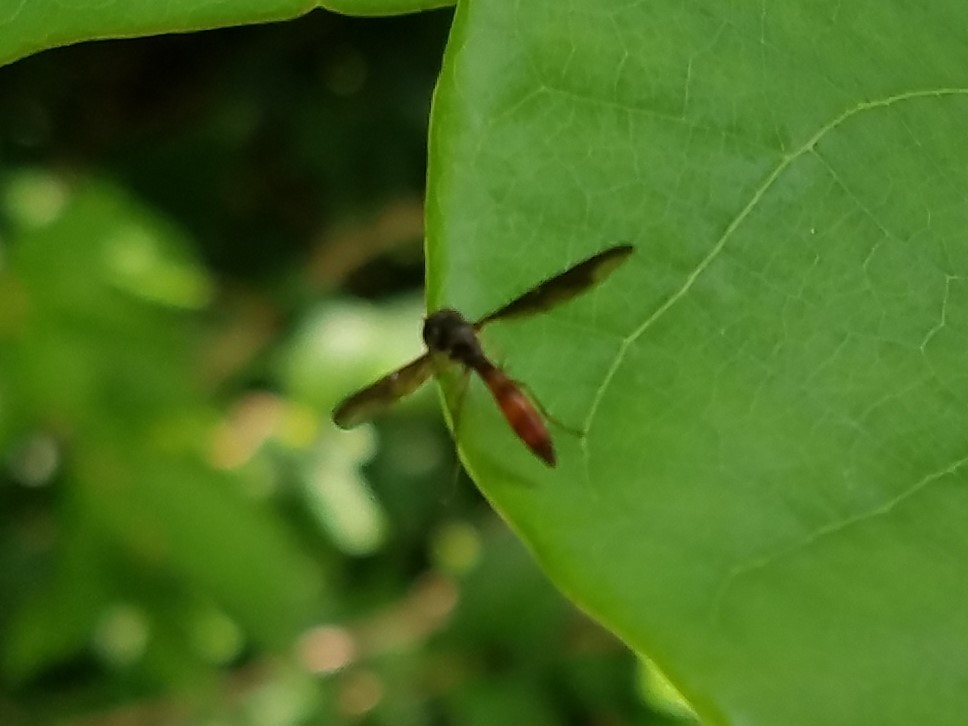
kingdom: Animalia
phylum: Arthropoda
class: Insecta
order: Diptera
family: Syrphidae
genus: Ocyptamus
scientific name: Ocyptamus fuscipennis
